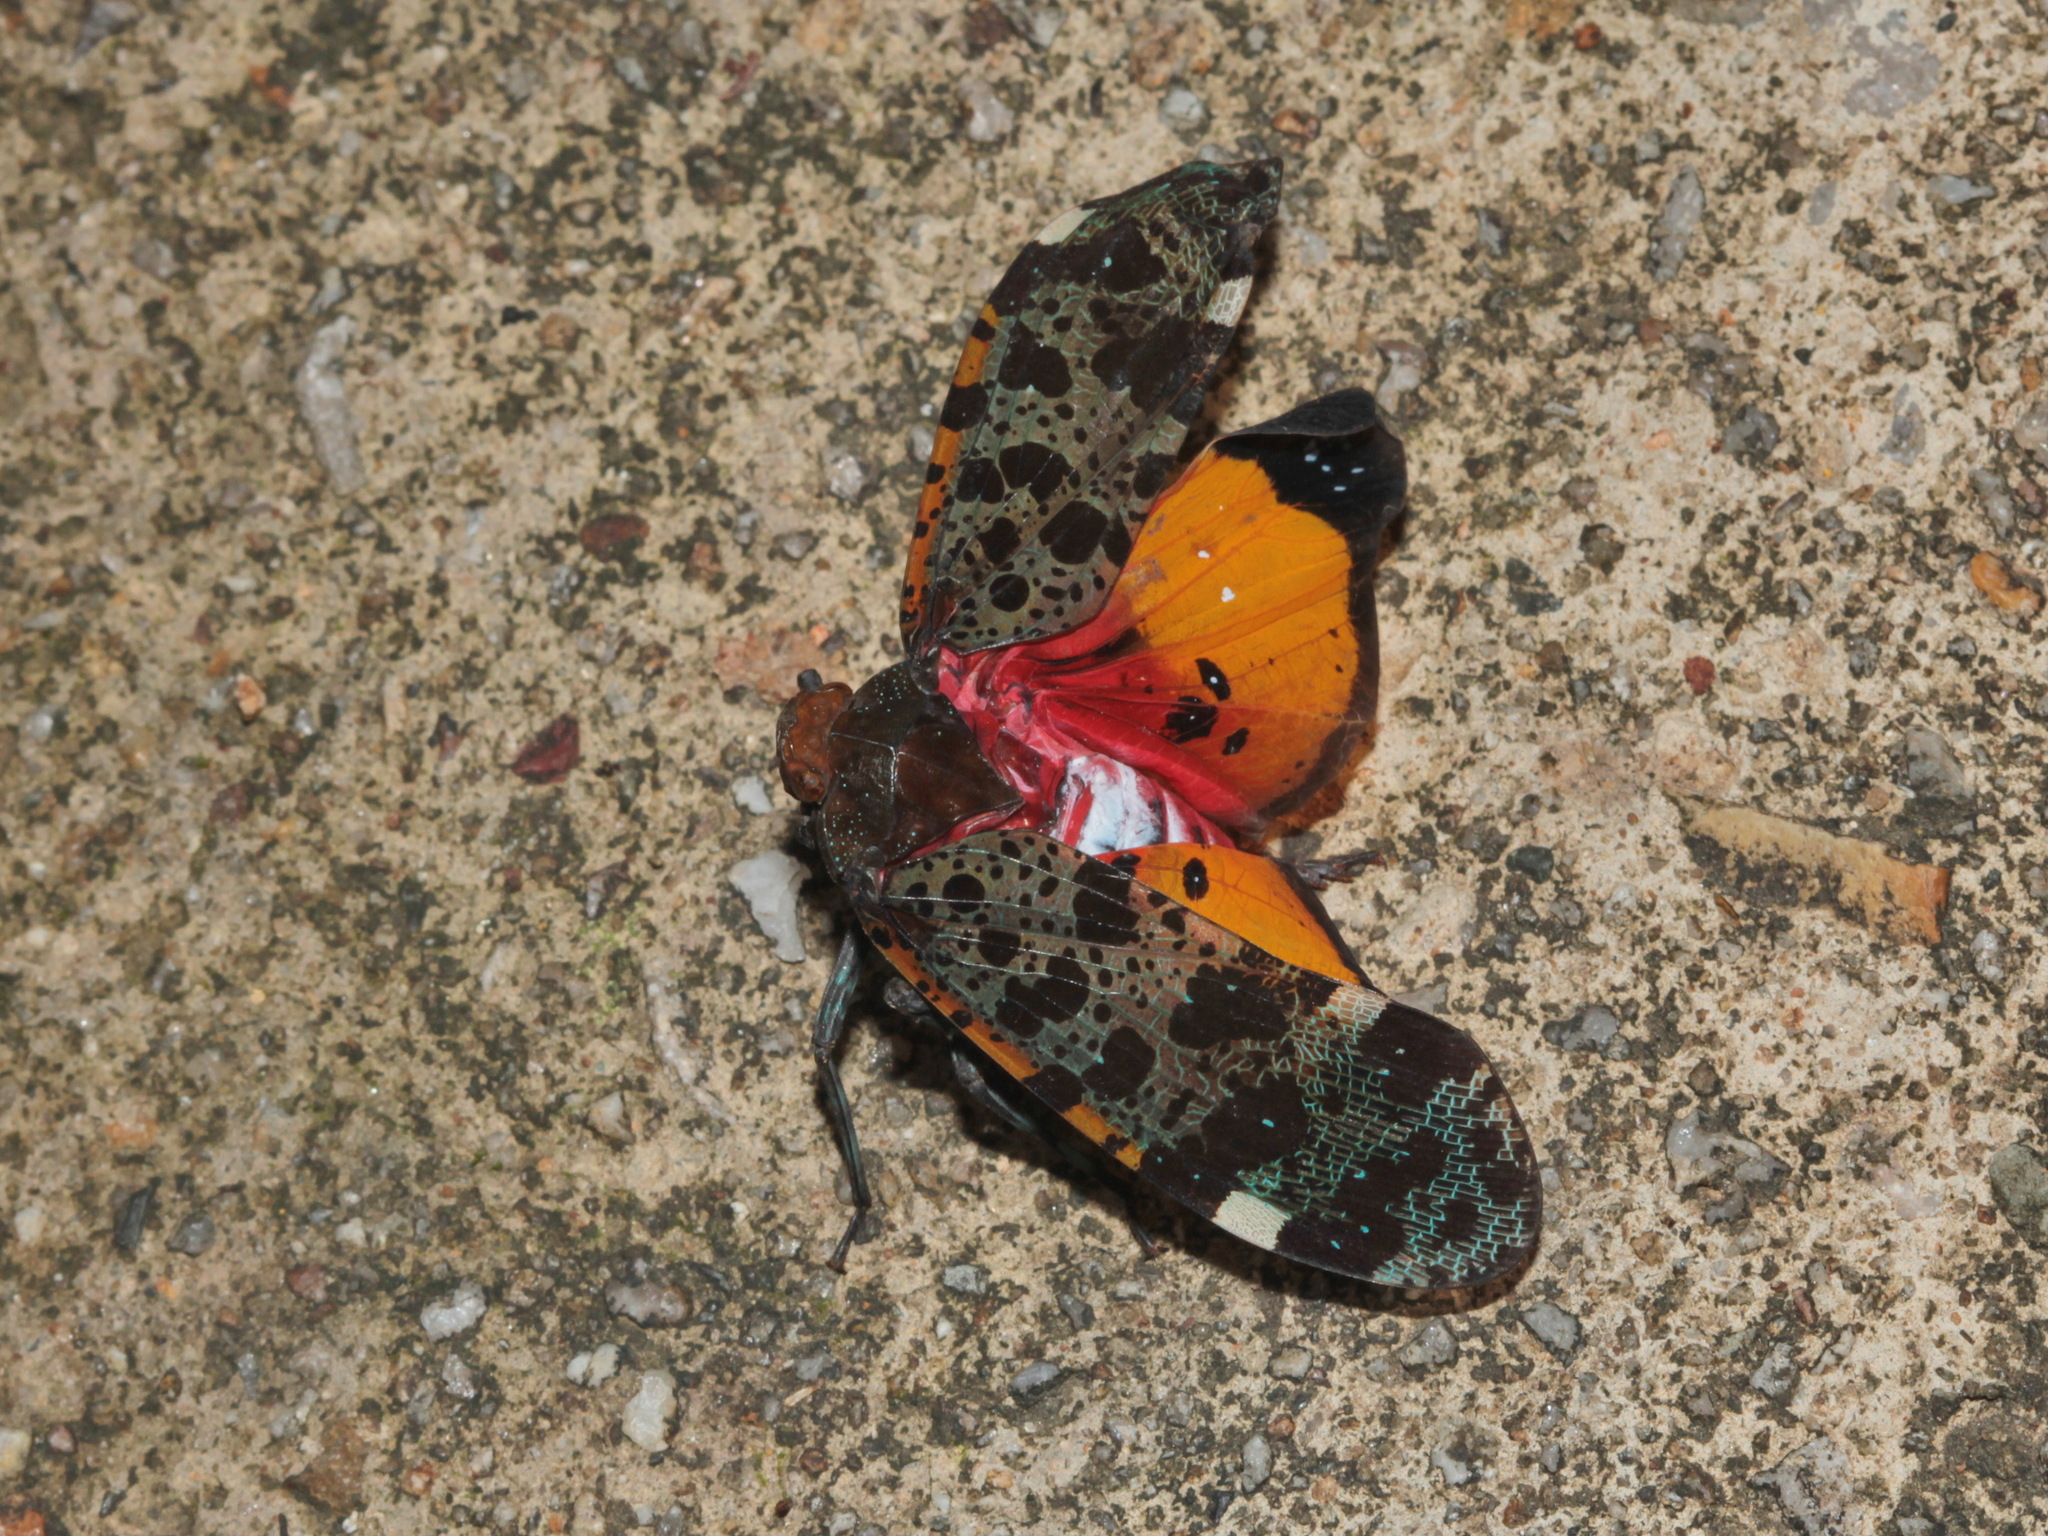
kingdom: Animalia
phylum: Arthropoda
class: Insecta
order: Hemiptera
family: Fulgoridae
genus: Penthicodes
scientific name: Penthicodes variegata
